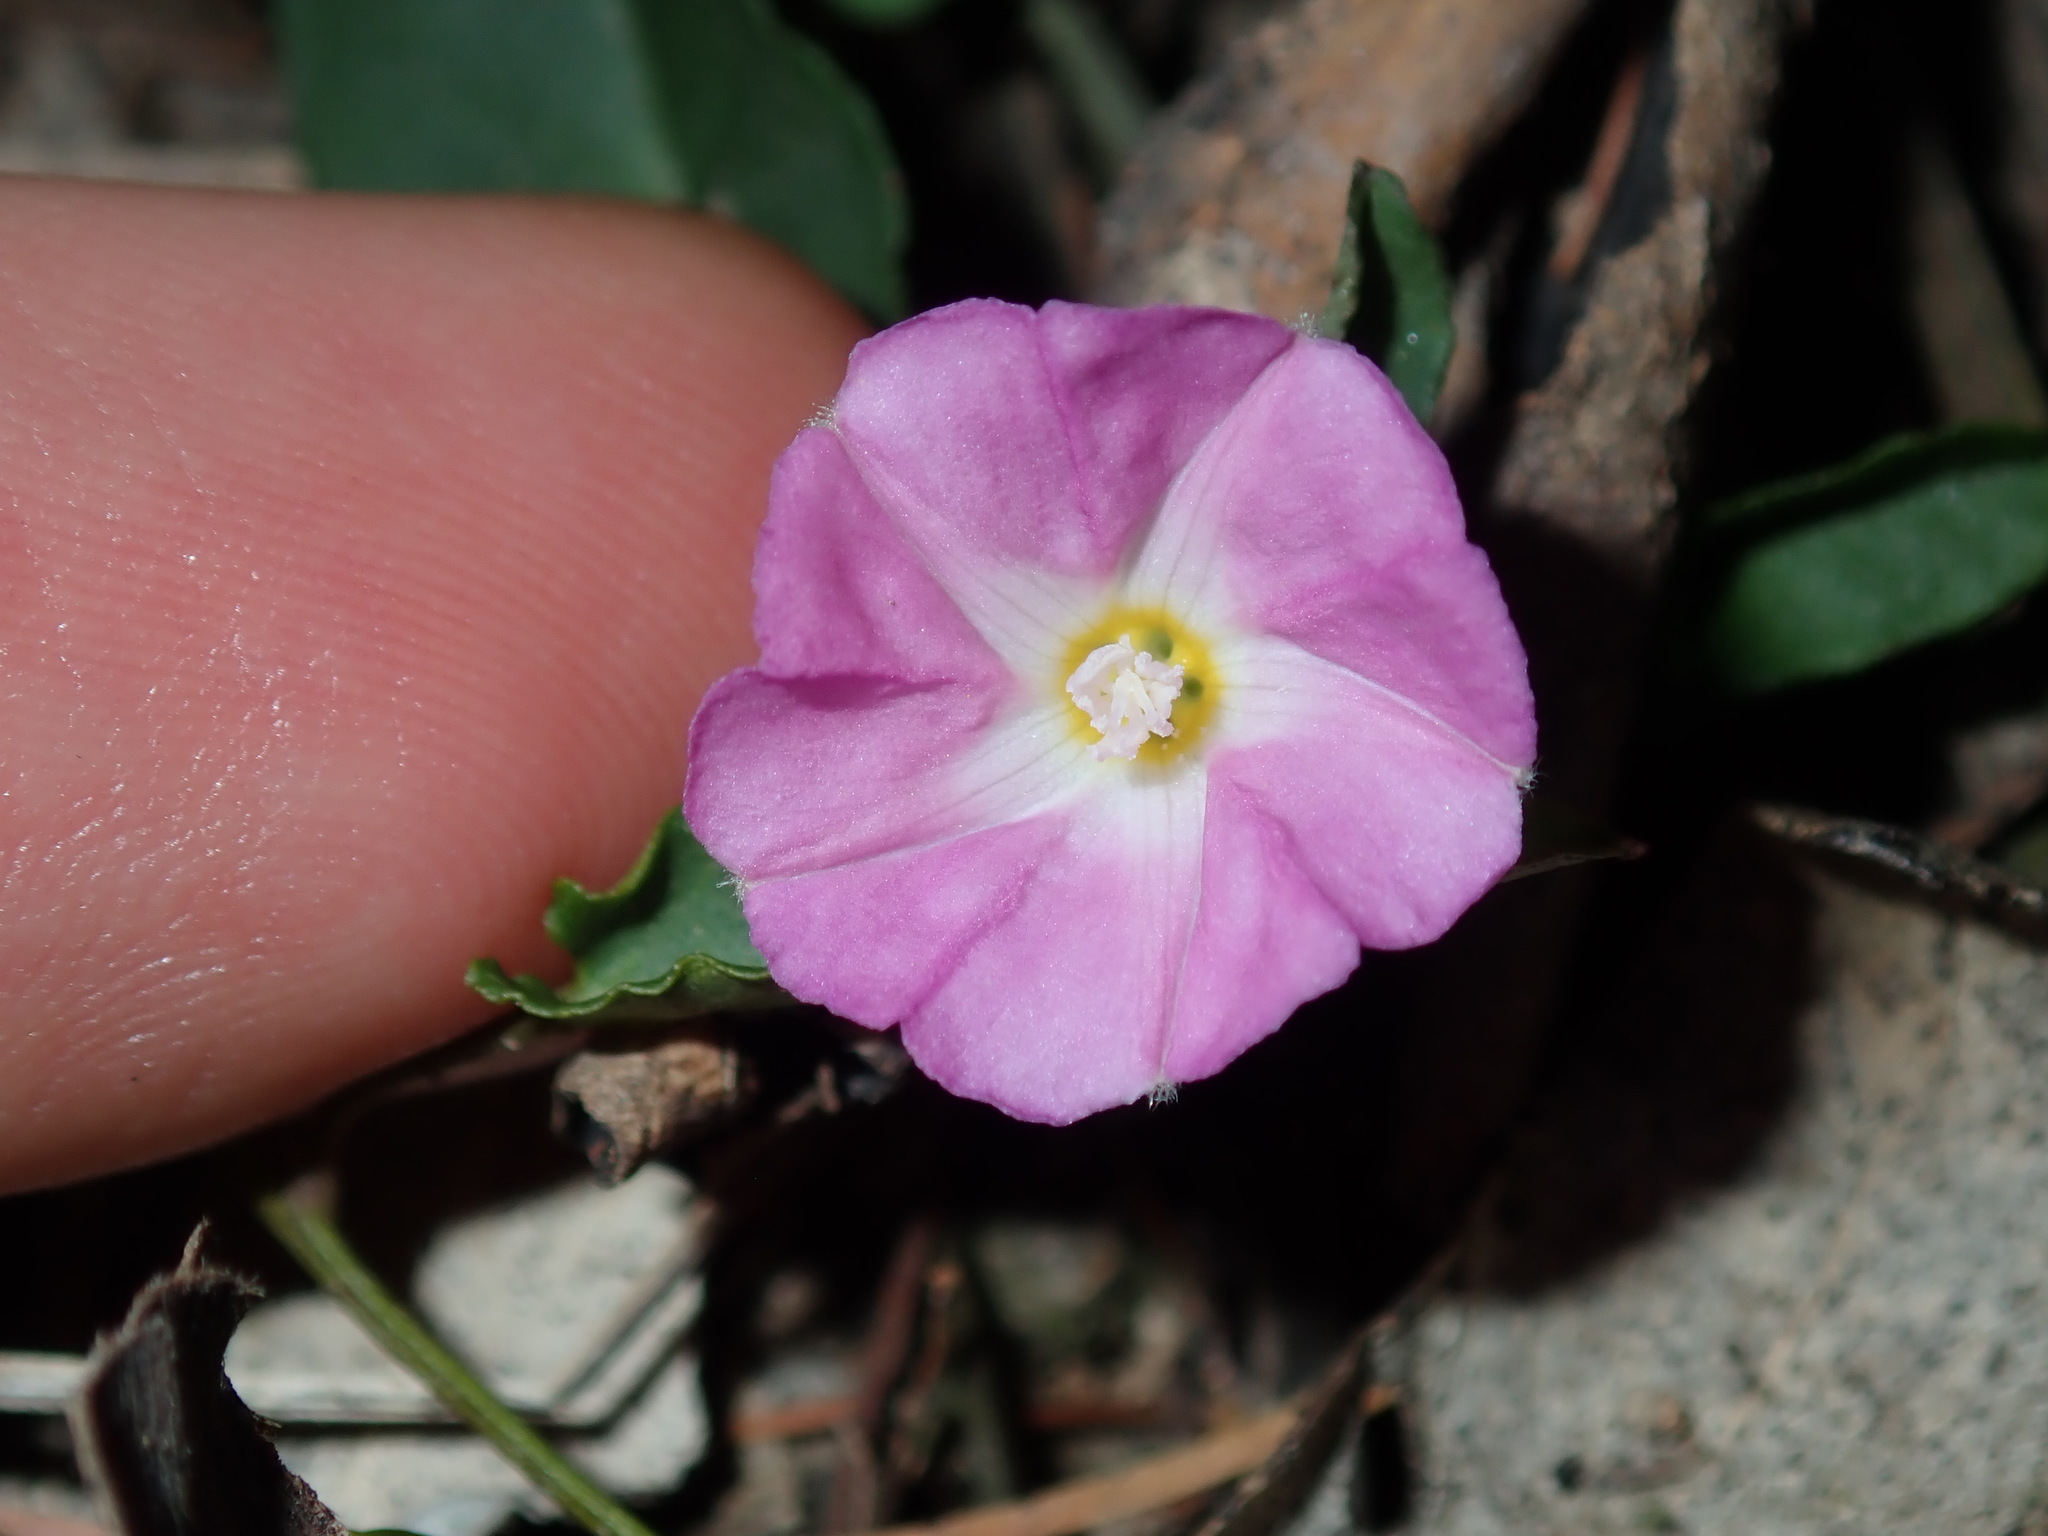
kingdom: Plantae
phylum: Tracheophyta
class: Magnoliopsida
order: Solanales
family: Convolvulaceae
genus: Polymeria
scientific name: Polymeria calycina
